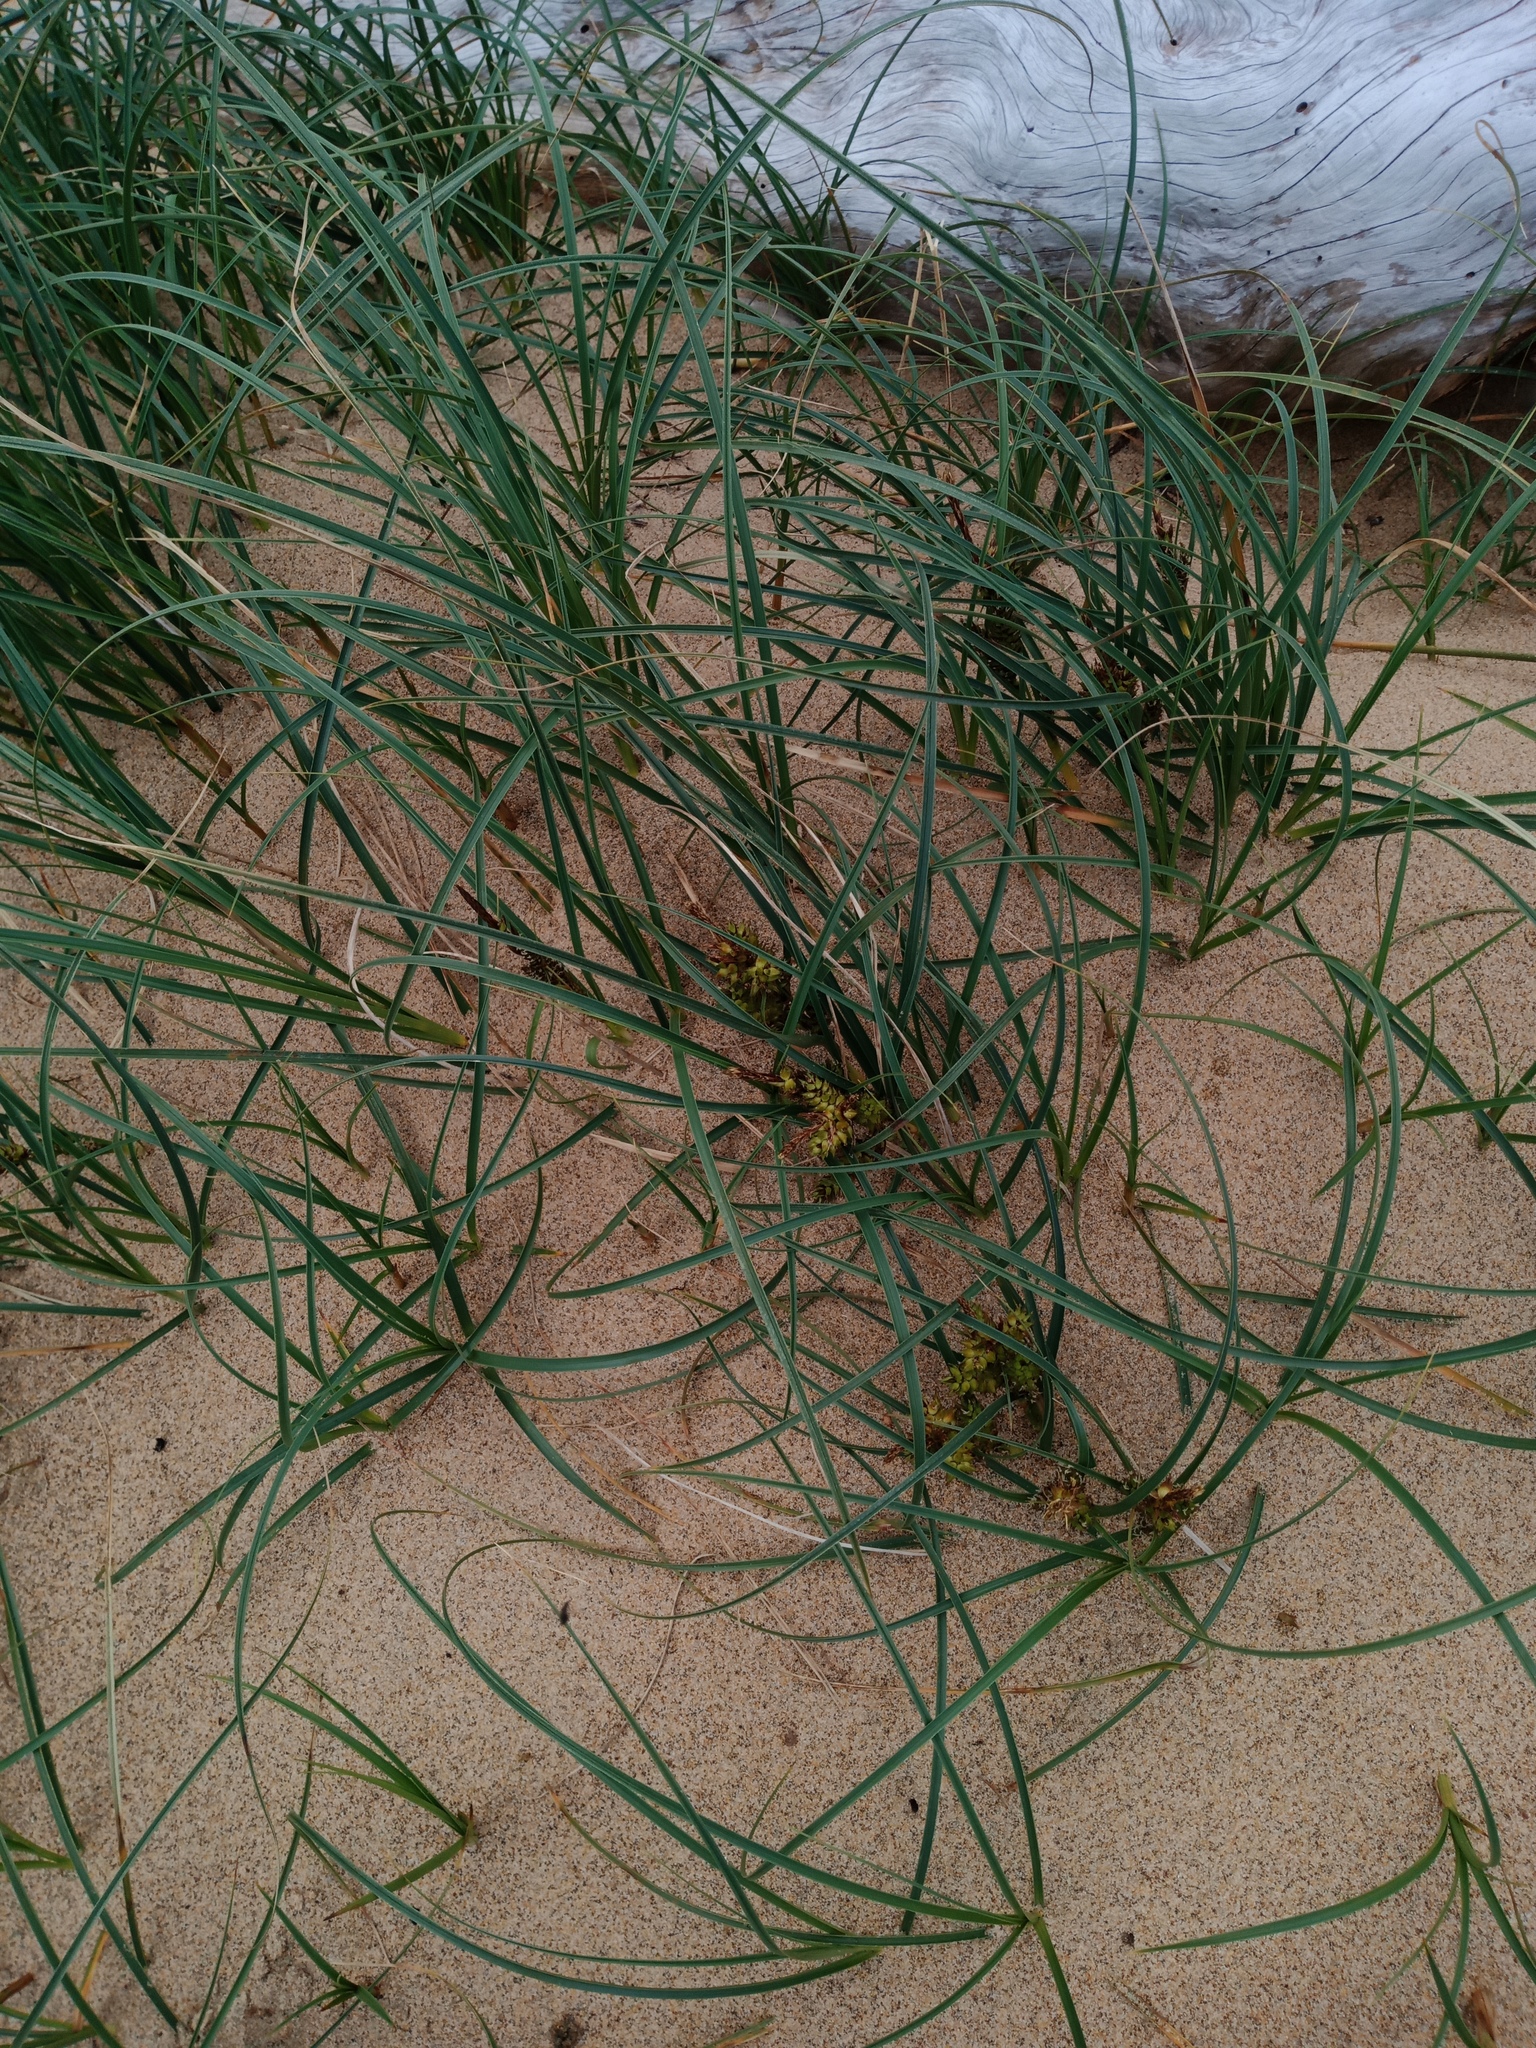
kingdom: Plantae
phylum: Tracheophyta
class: Liliopsida
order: Poales
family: Cyperaceae
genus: Carex
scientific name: Carex pumila
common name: Dwarf sedge
